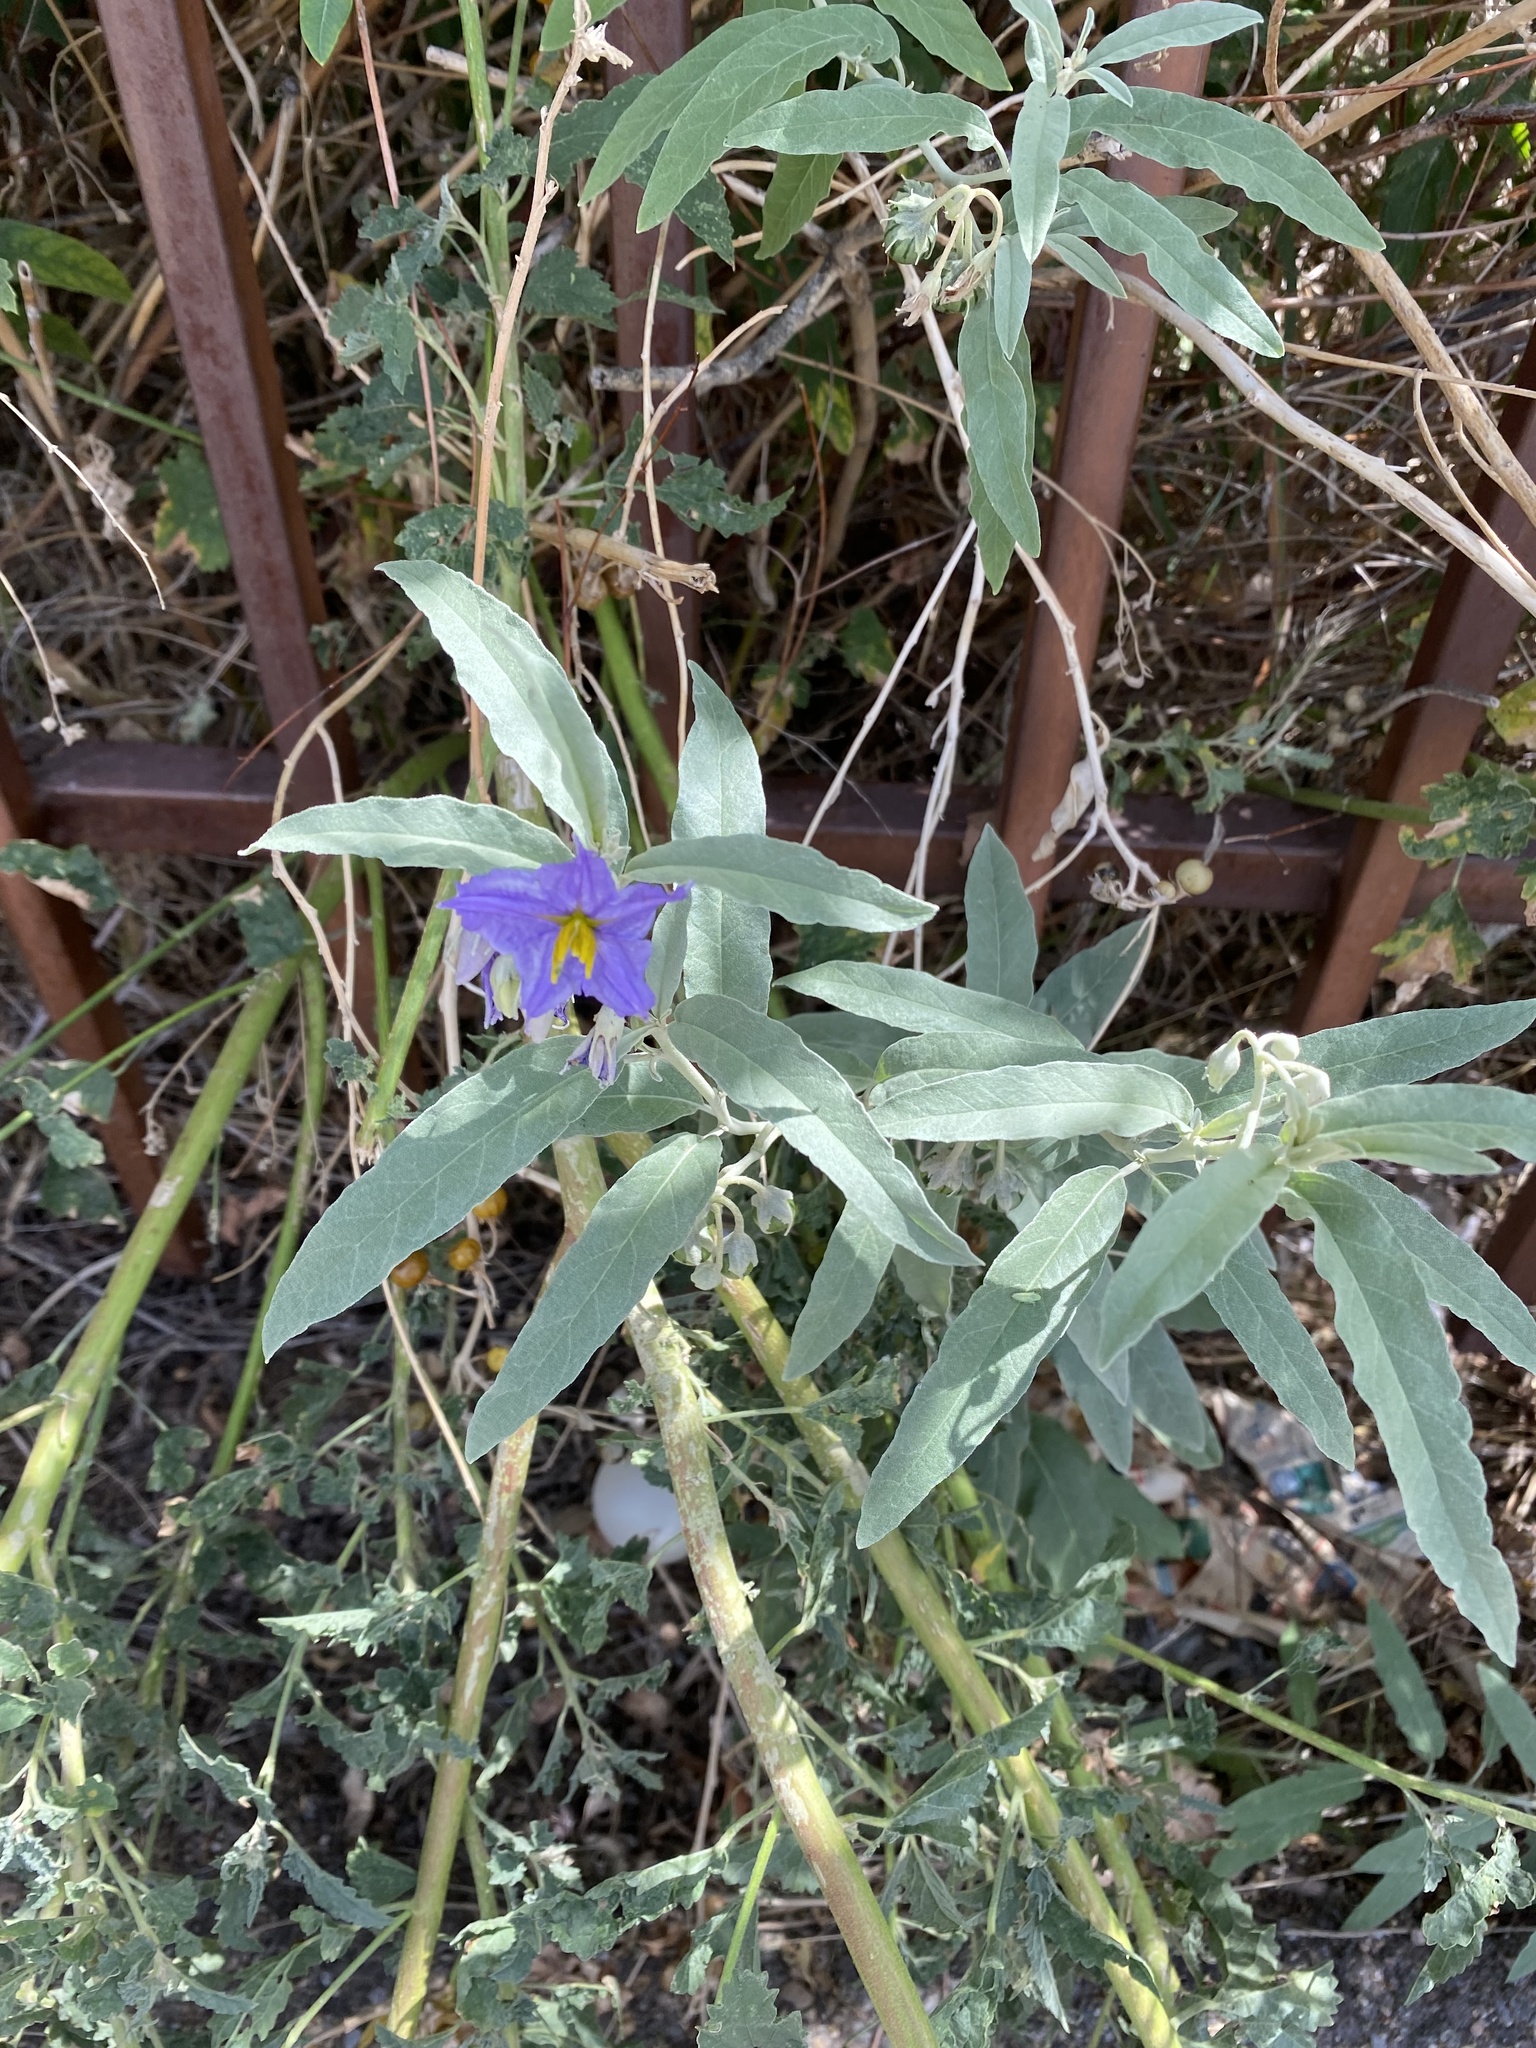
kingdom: Plantae
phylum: Tracheophyta
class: Magnoliopsida
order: Solanales
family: Solanaceae
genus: Solanum
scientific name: Solanum elaeagnifolium
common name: Silverleaf nightshade
